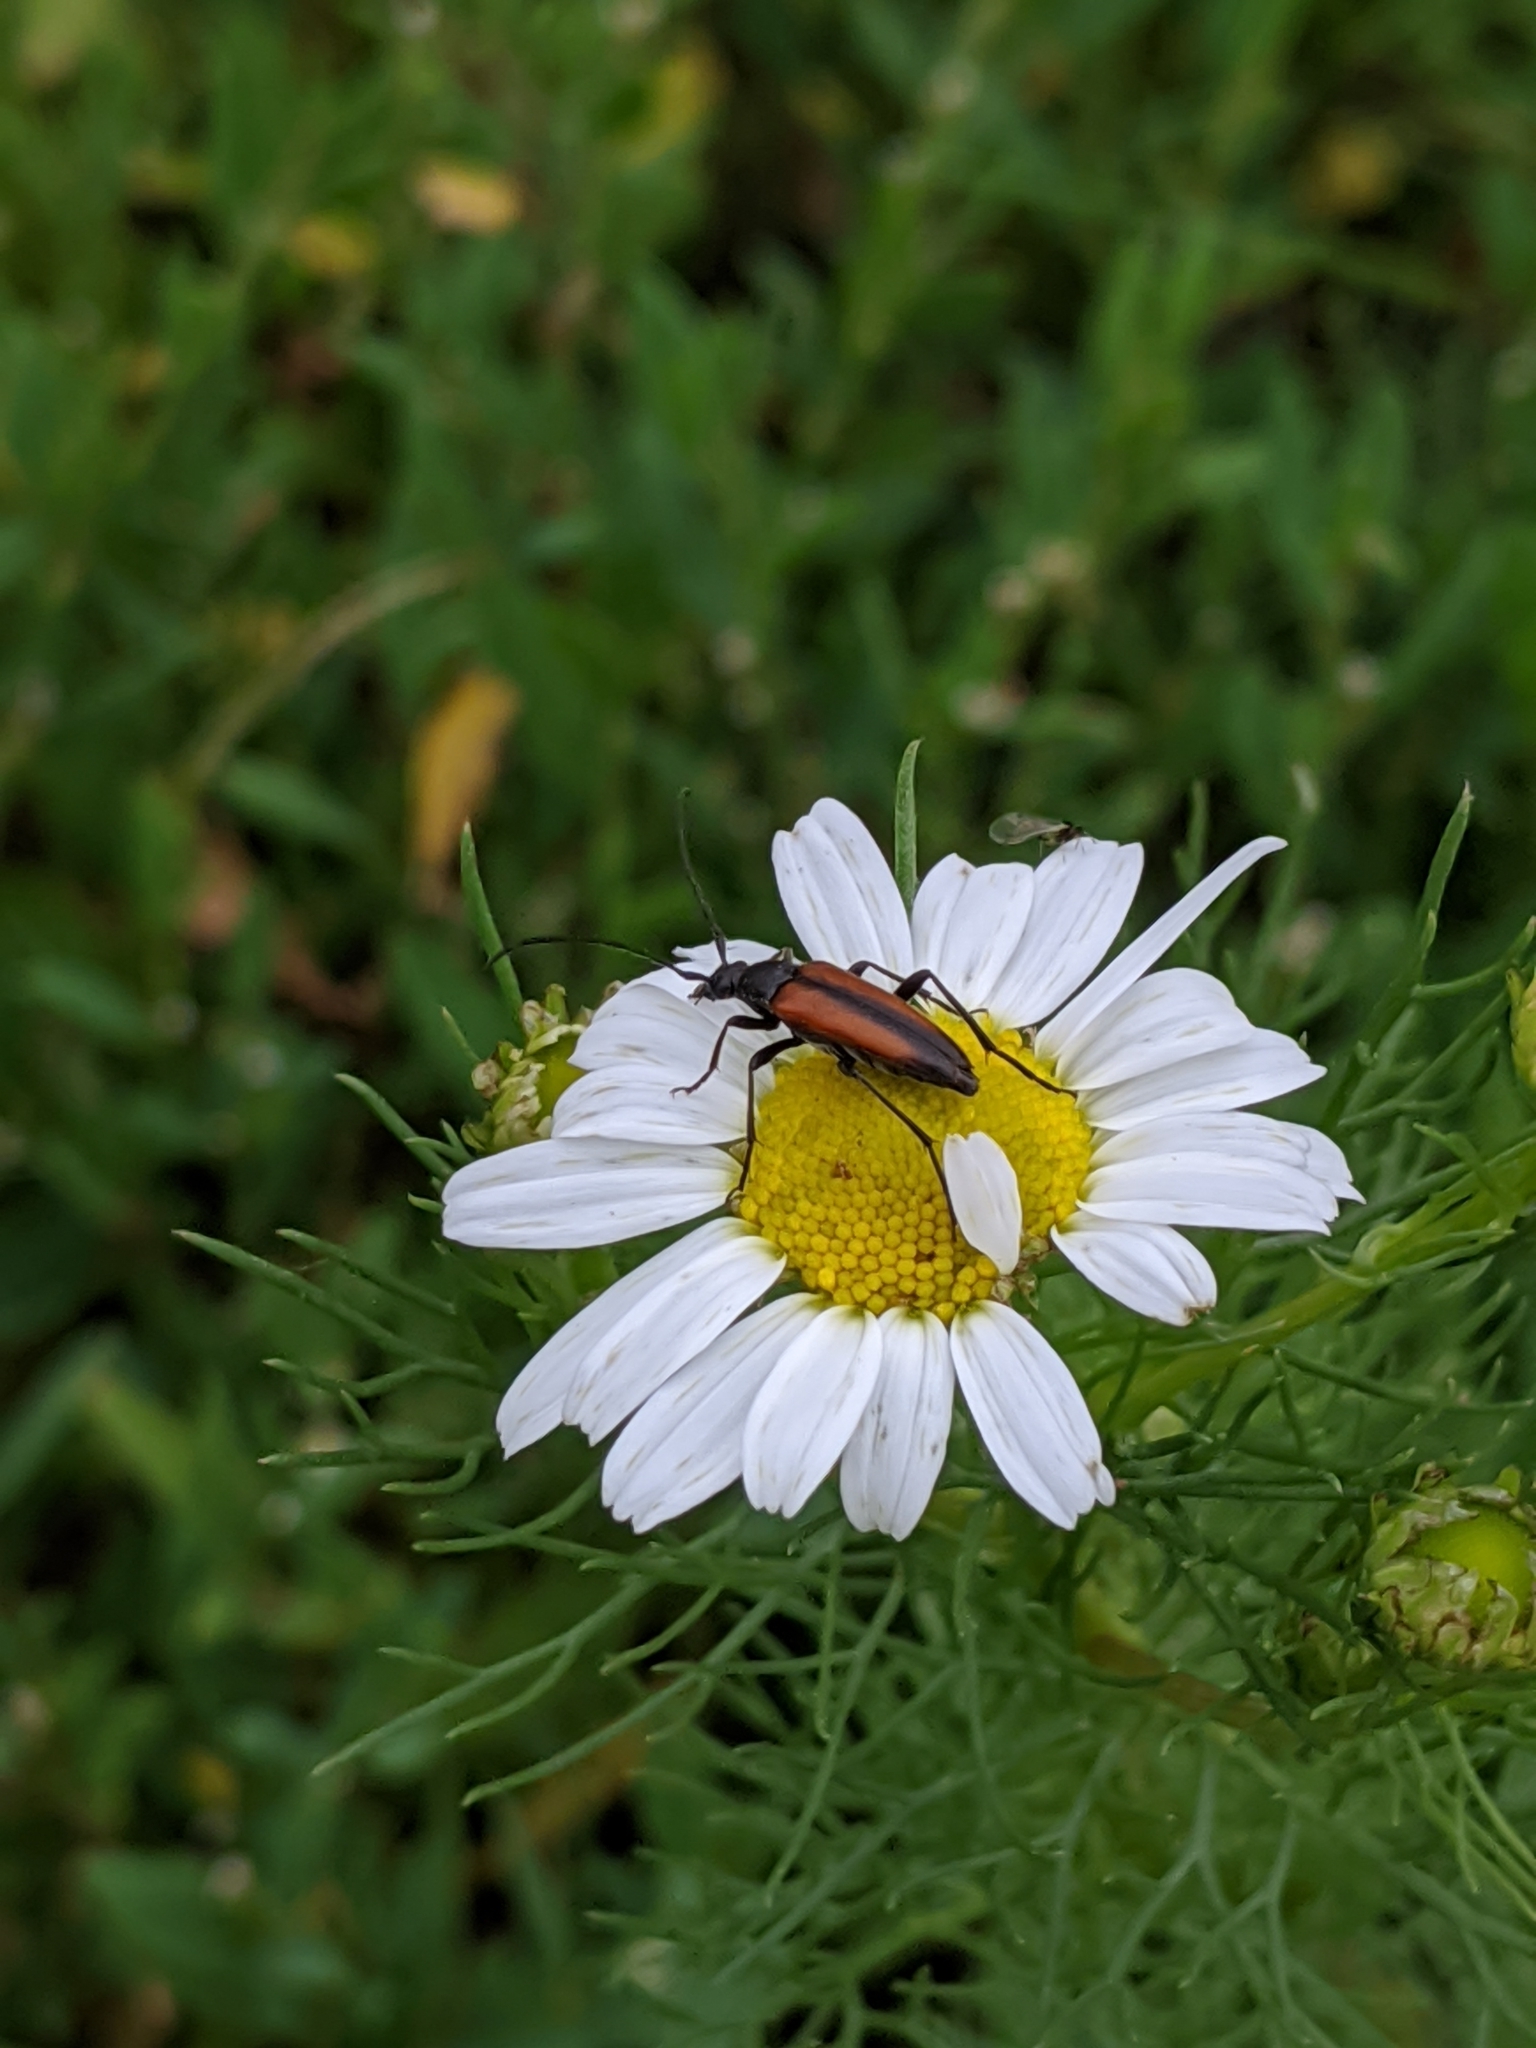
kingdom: Animalia
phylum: Arthropoda
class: Insecta
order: Coleoptera
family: Cerambycidae
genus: Stenurella
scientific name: Stenurella melanura
